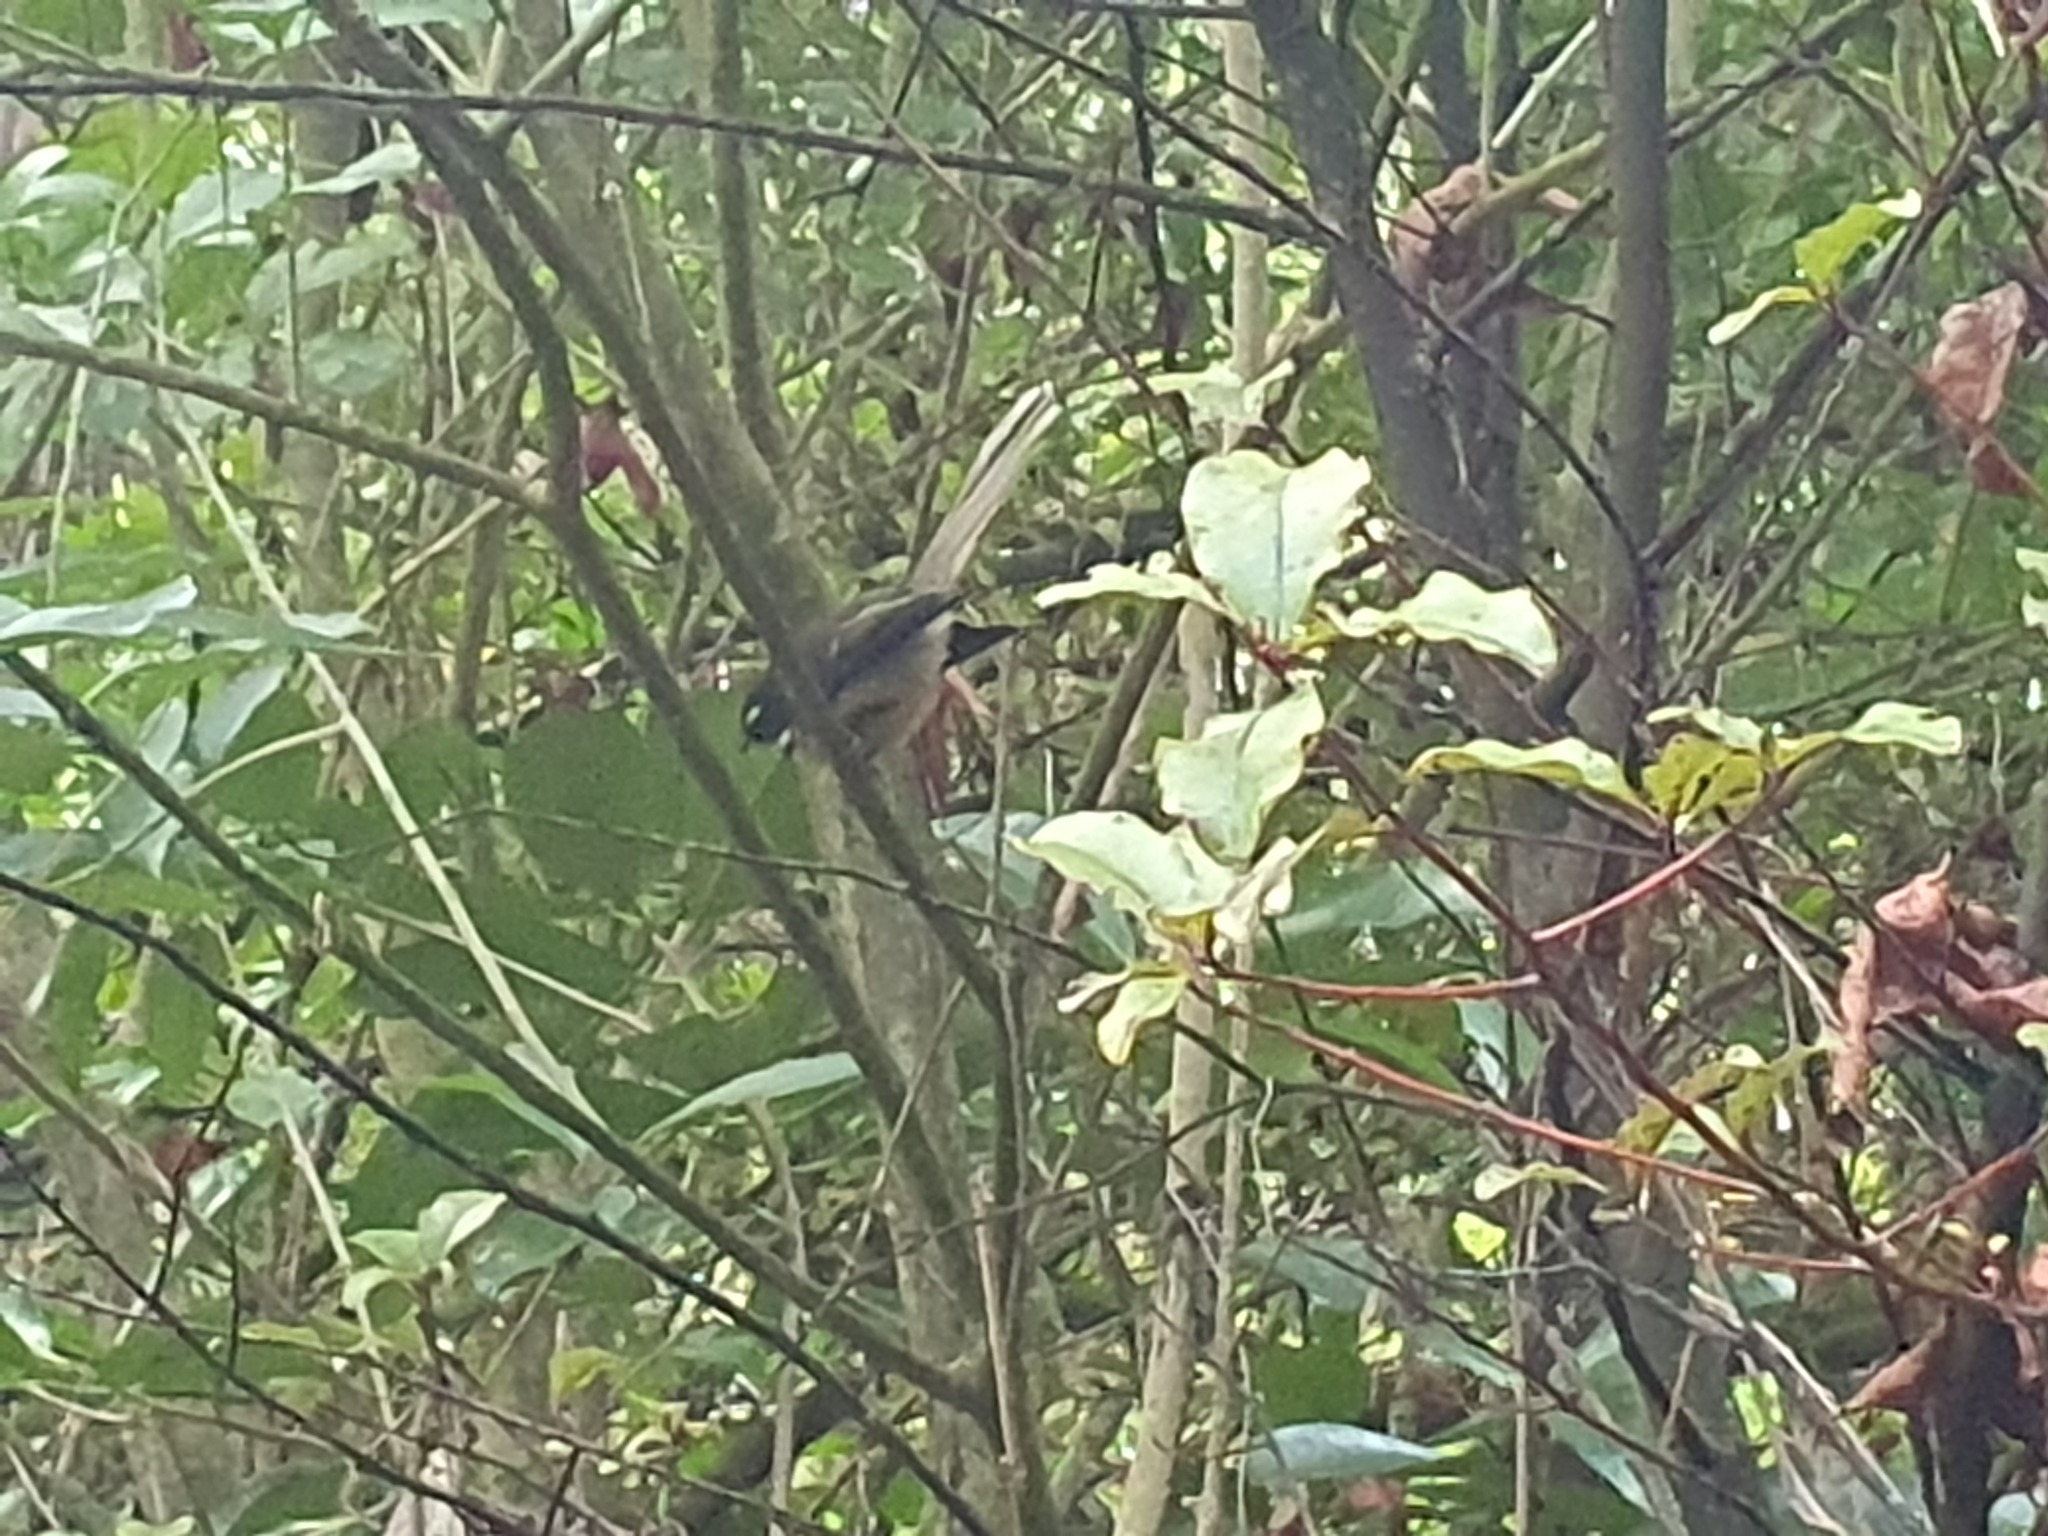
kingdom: Animalia
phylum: Chordata
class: Aves
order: Passeriformes
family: Rhipiduridae
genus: Rhipidura
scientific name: Rhipidura fuliginosa
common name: New zealand fantail
